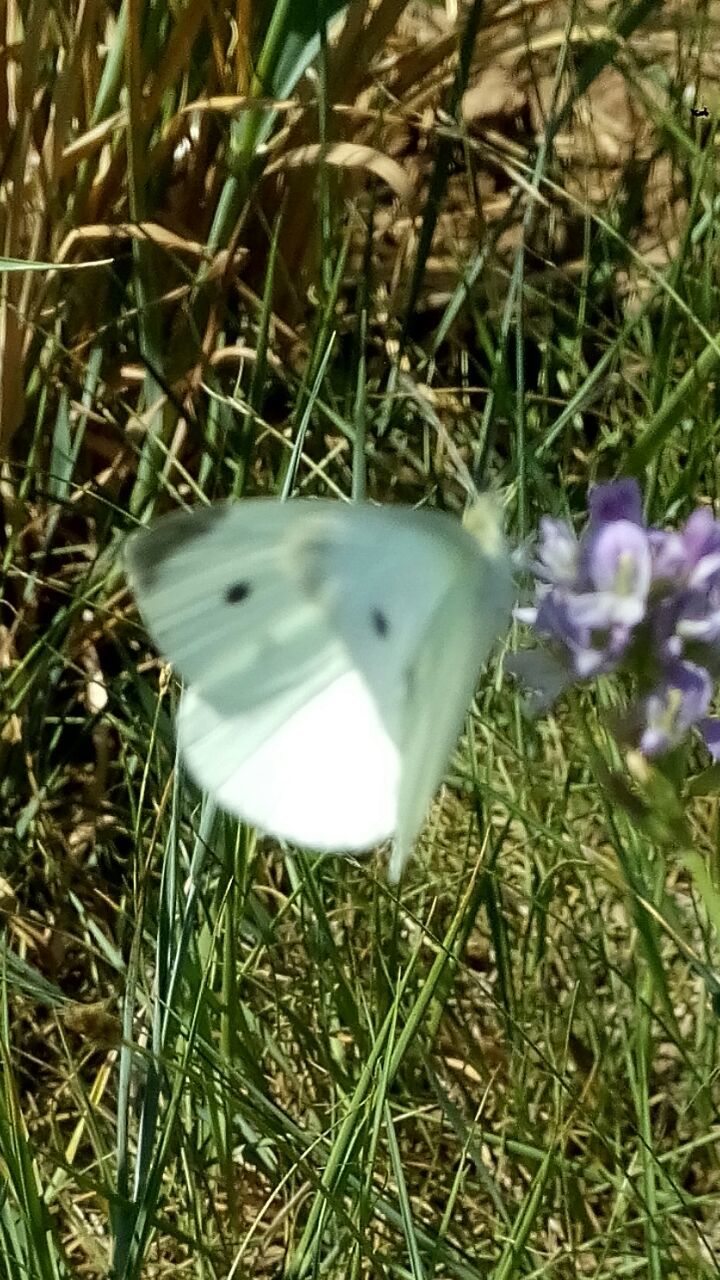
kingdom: Animalia
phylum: Arthropoda
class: Insecta
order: Lepidoptera
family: Pieridae
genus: Pieris
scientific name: Pieris rapae
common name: Small white
